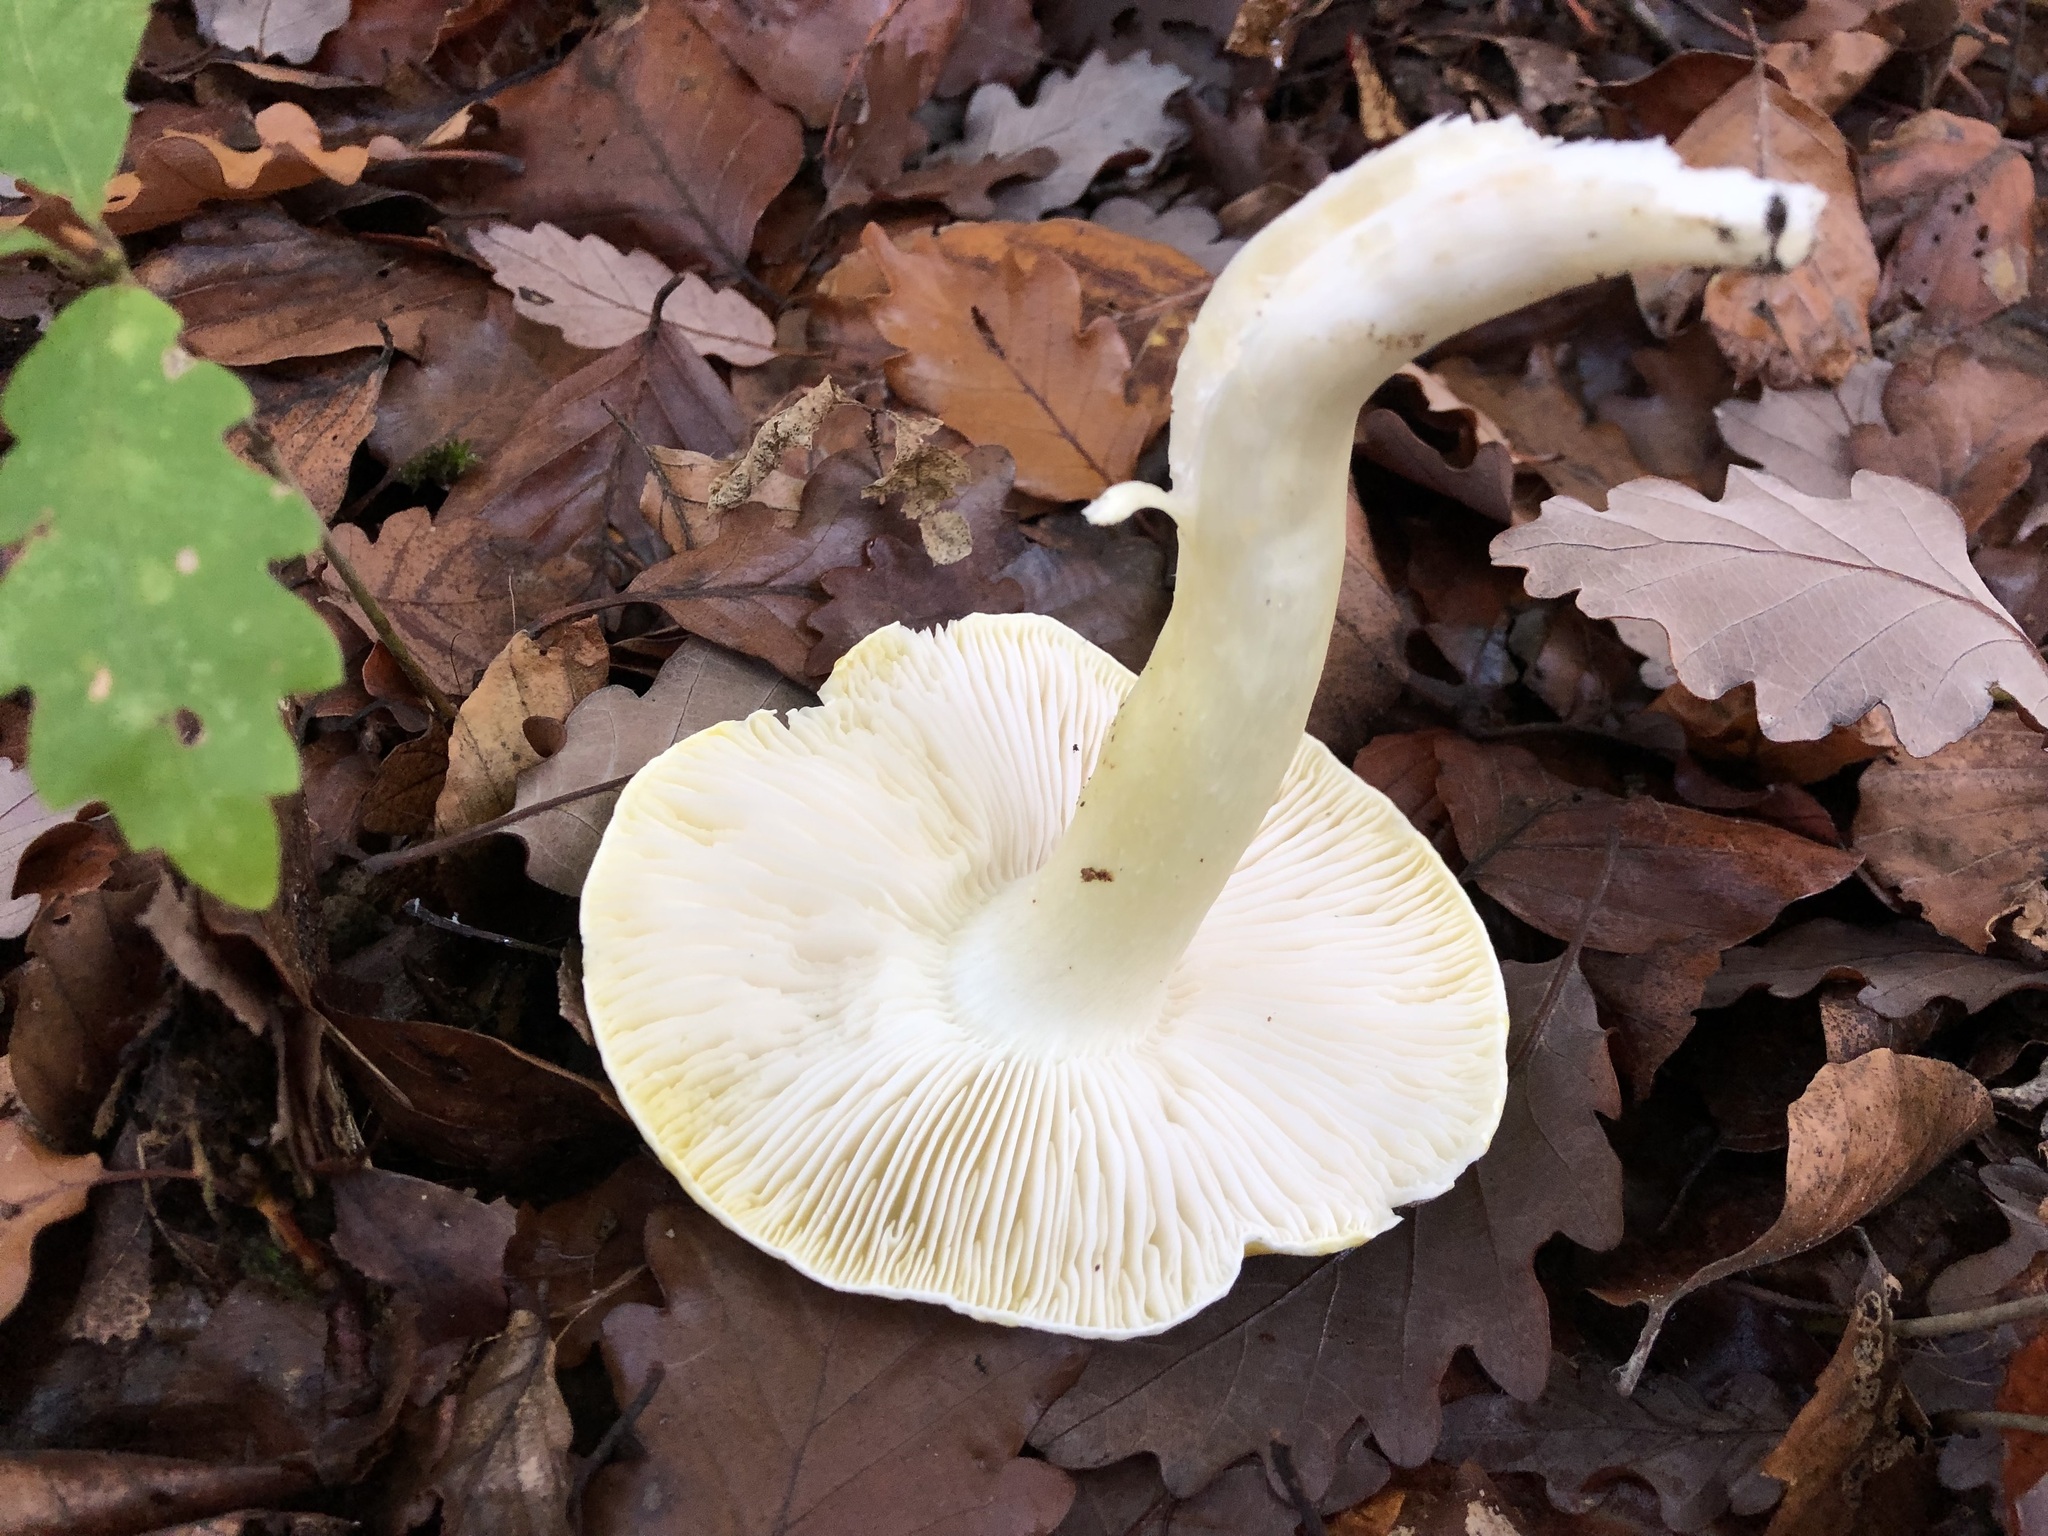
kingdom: Fungi
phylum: Basidiomycota
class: Agaricomycetes
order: Agaricales
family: Tricholomataceae
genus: Tricholoma
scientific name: Tricholoma sejunctum
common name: Deceiving knight
